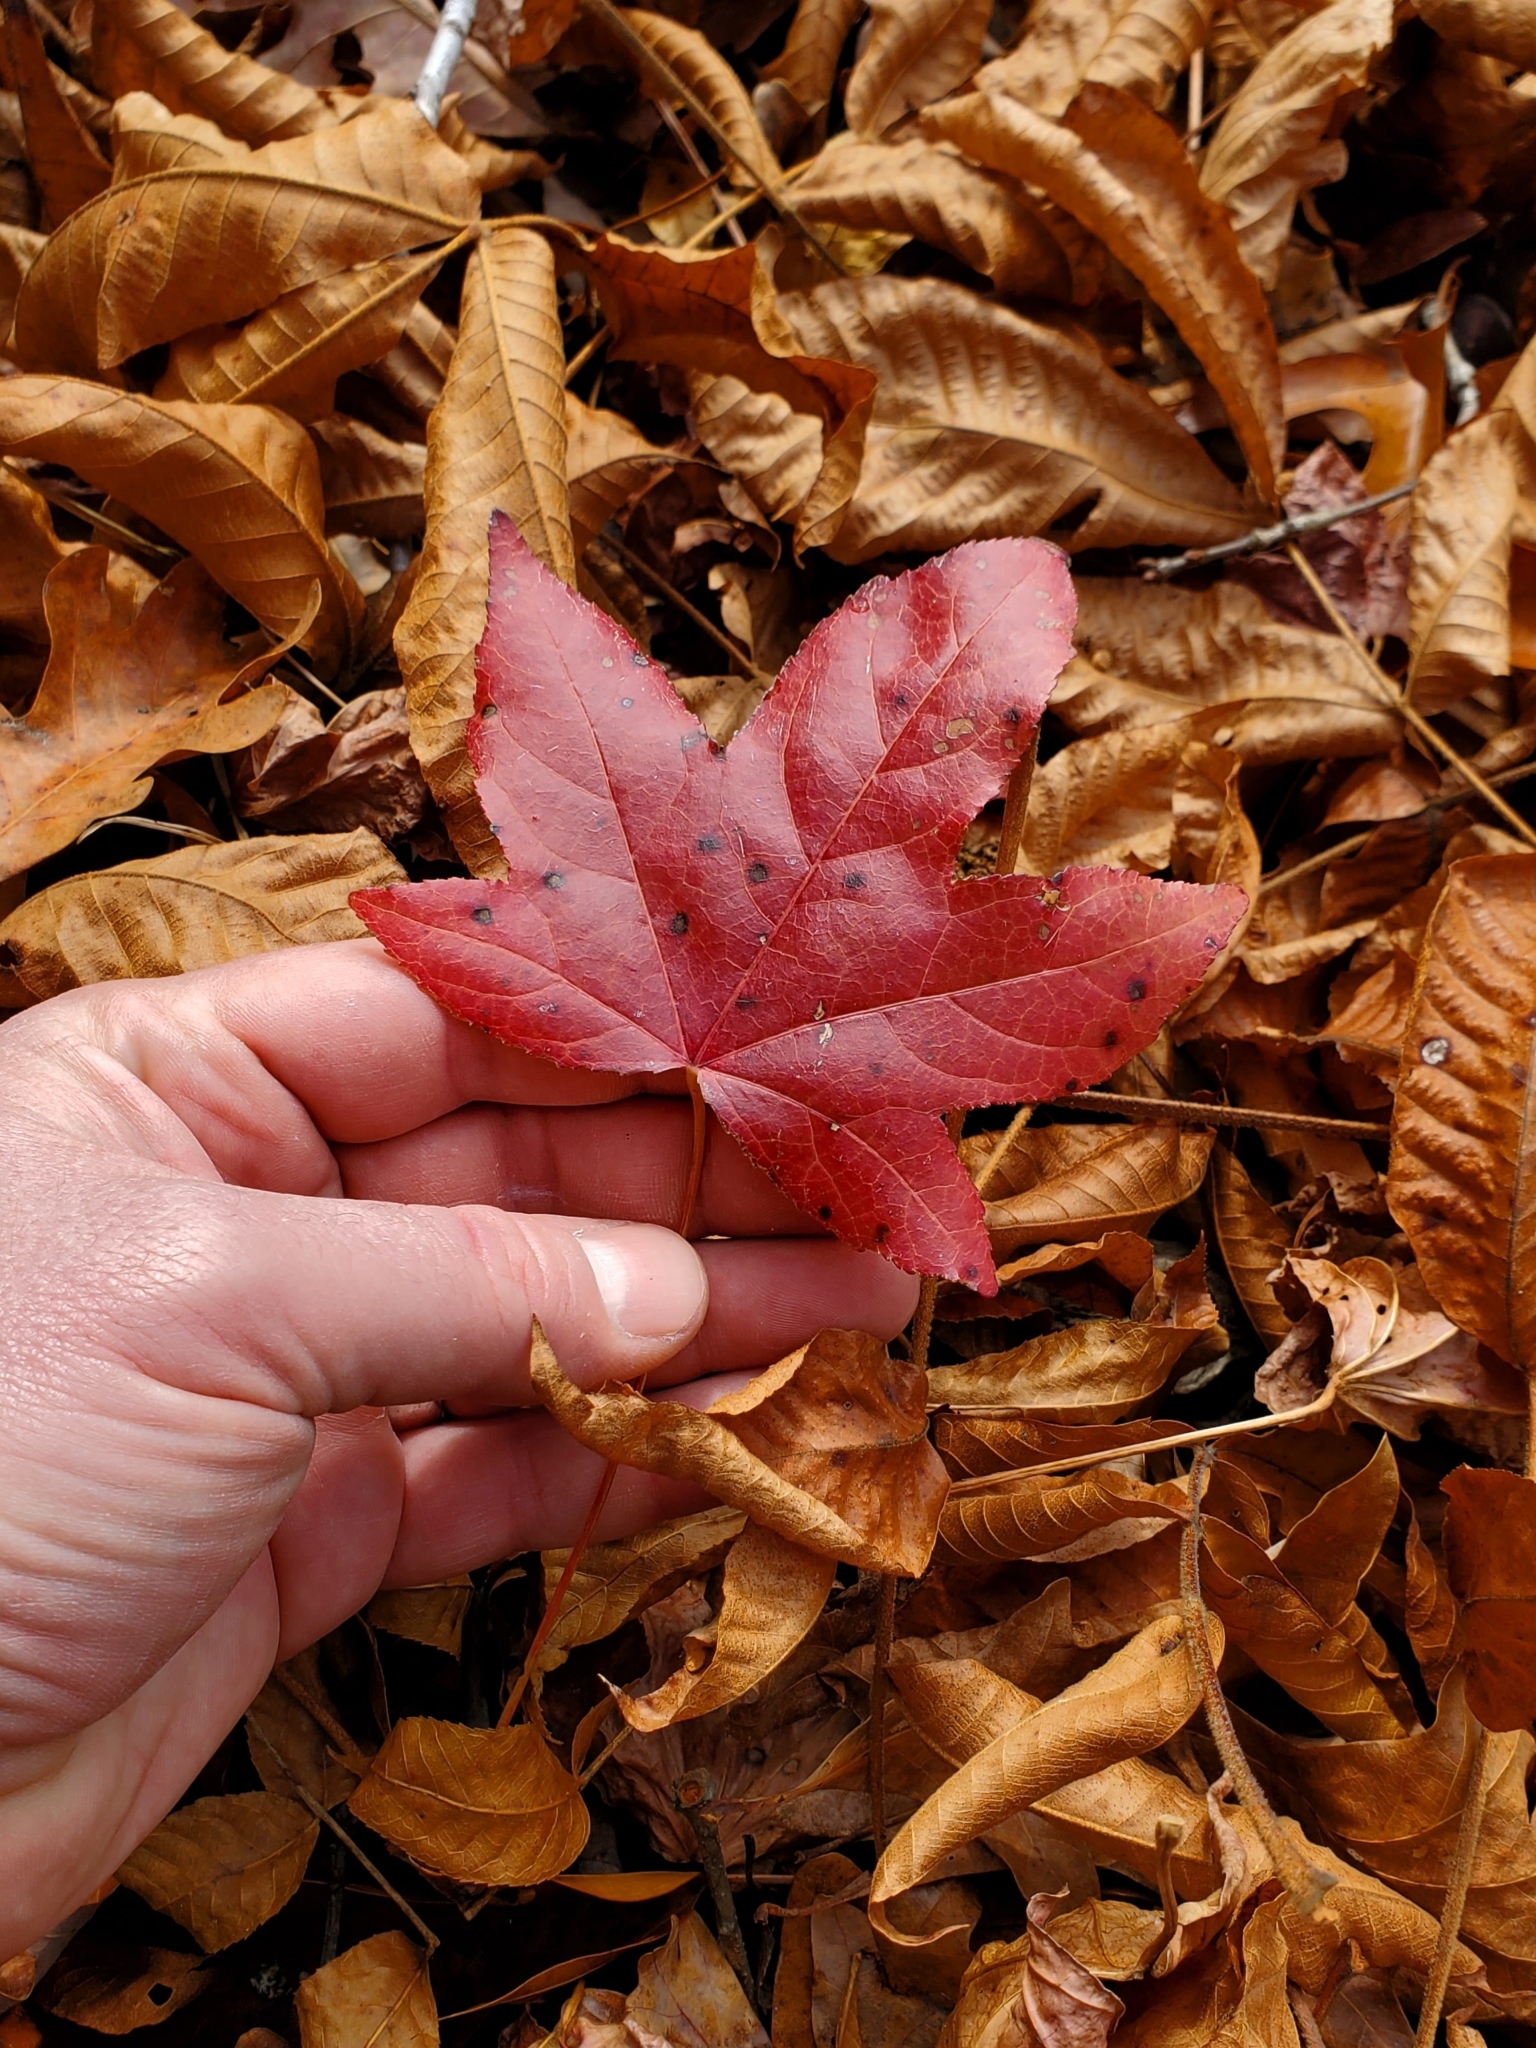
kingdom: Plantae
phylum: Tracheophyta
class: Magnoliopsida
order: Saxifragales
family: Altingiaceae
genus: Liquidambar
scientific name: Liquidambar styraciflua
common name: Sweet gum
